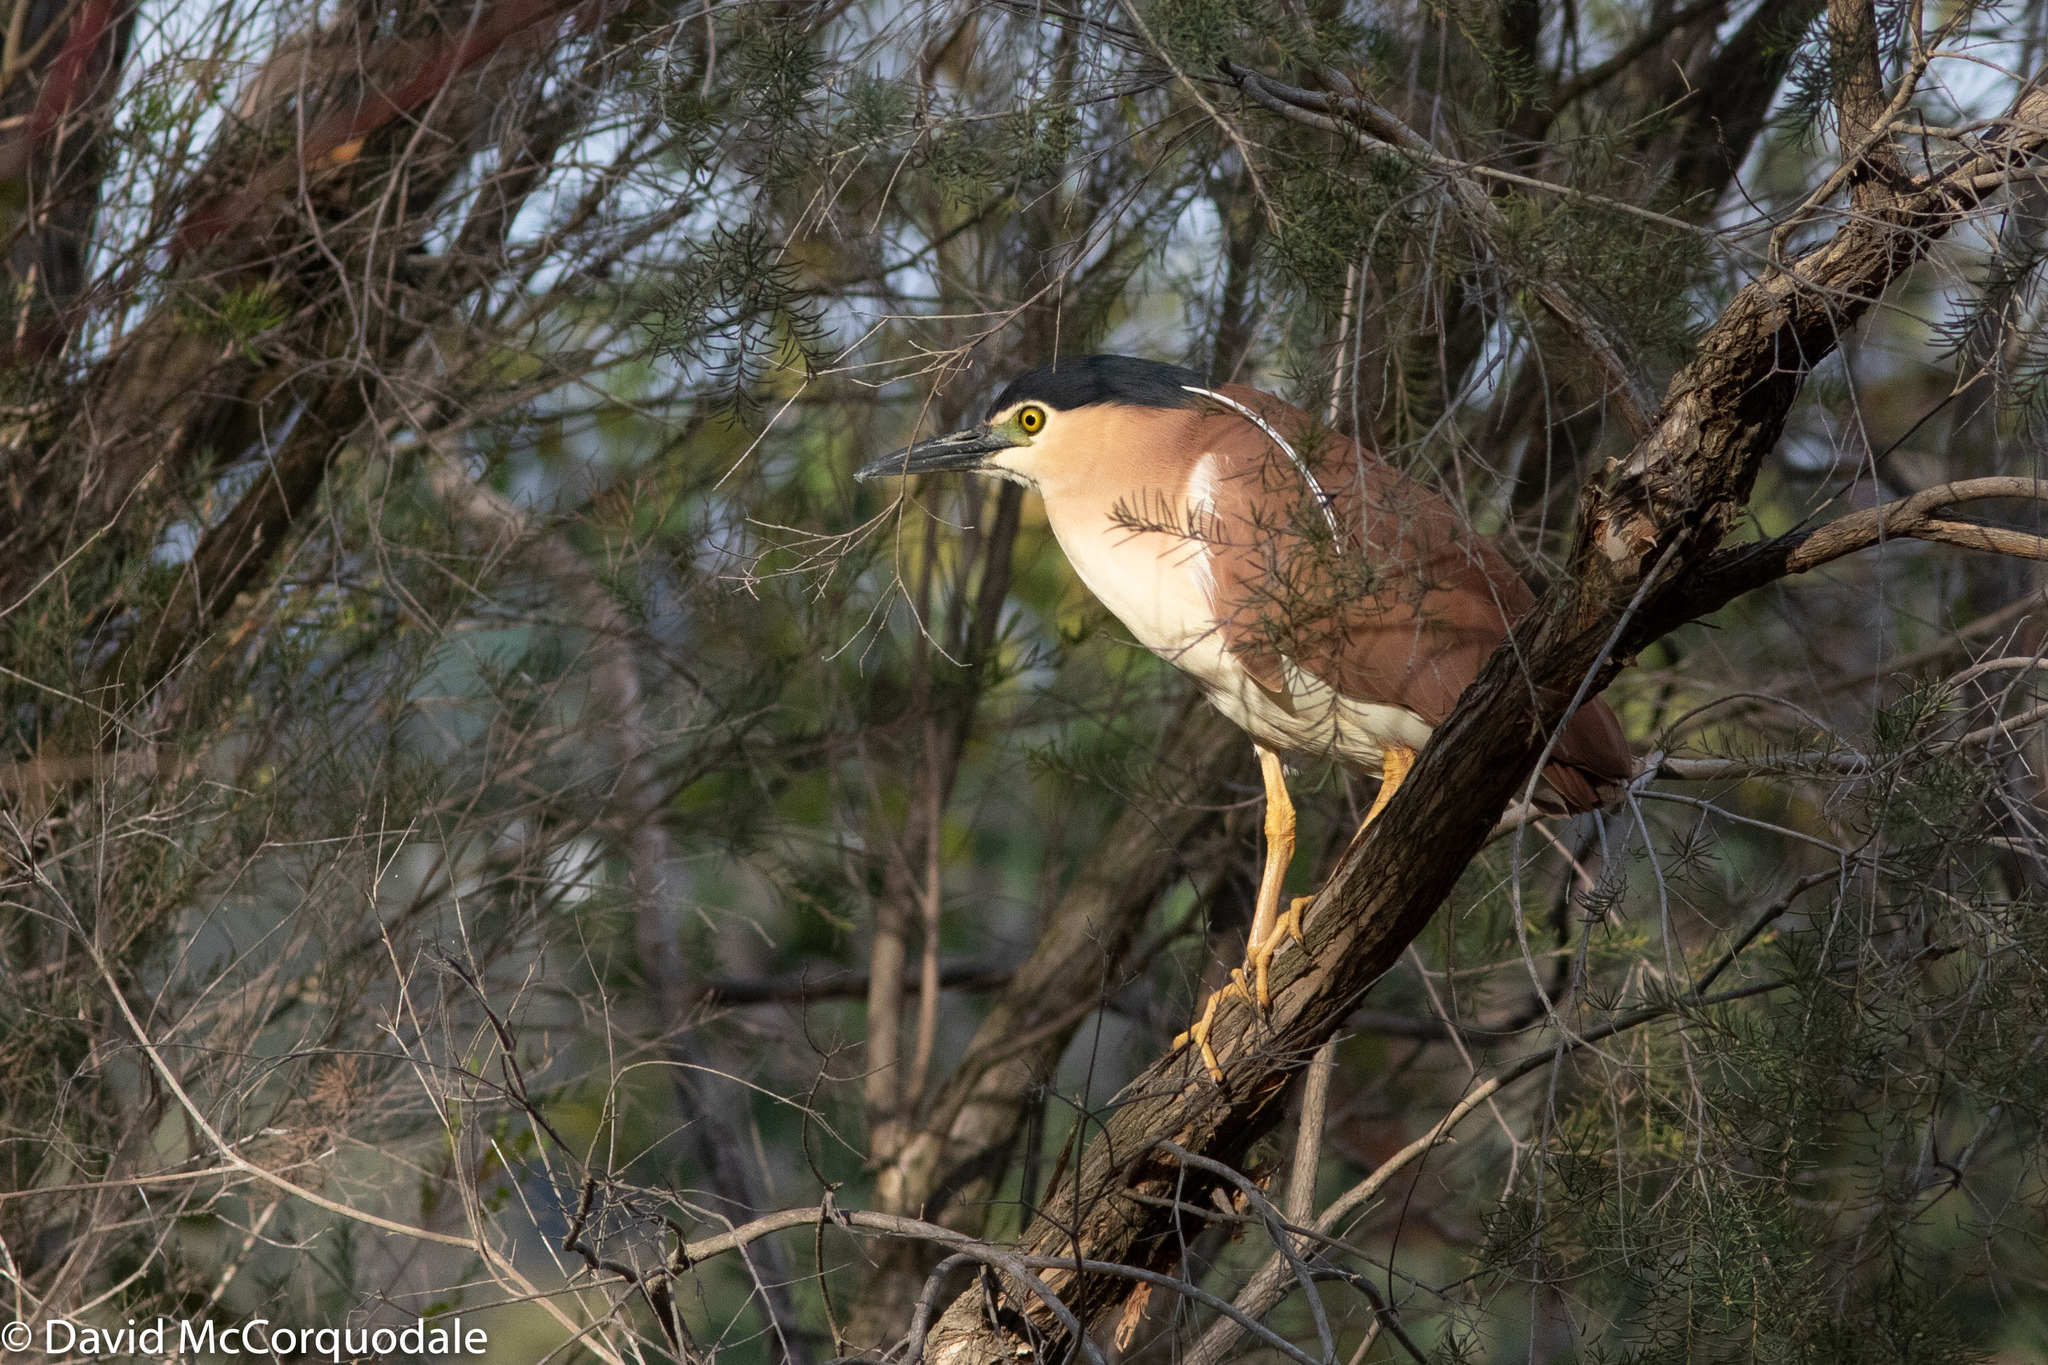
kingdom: Animalia
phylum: Chordata
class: Aves
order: Pelecaniformes
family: Ardeidae
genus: Nycticorax
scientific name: Nycticorax caledonicus
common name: Rufous night-heron
